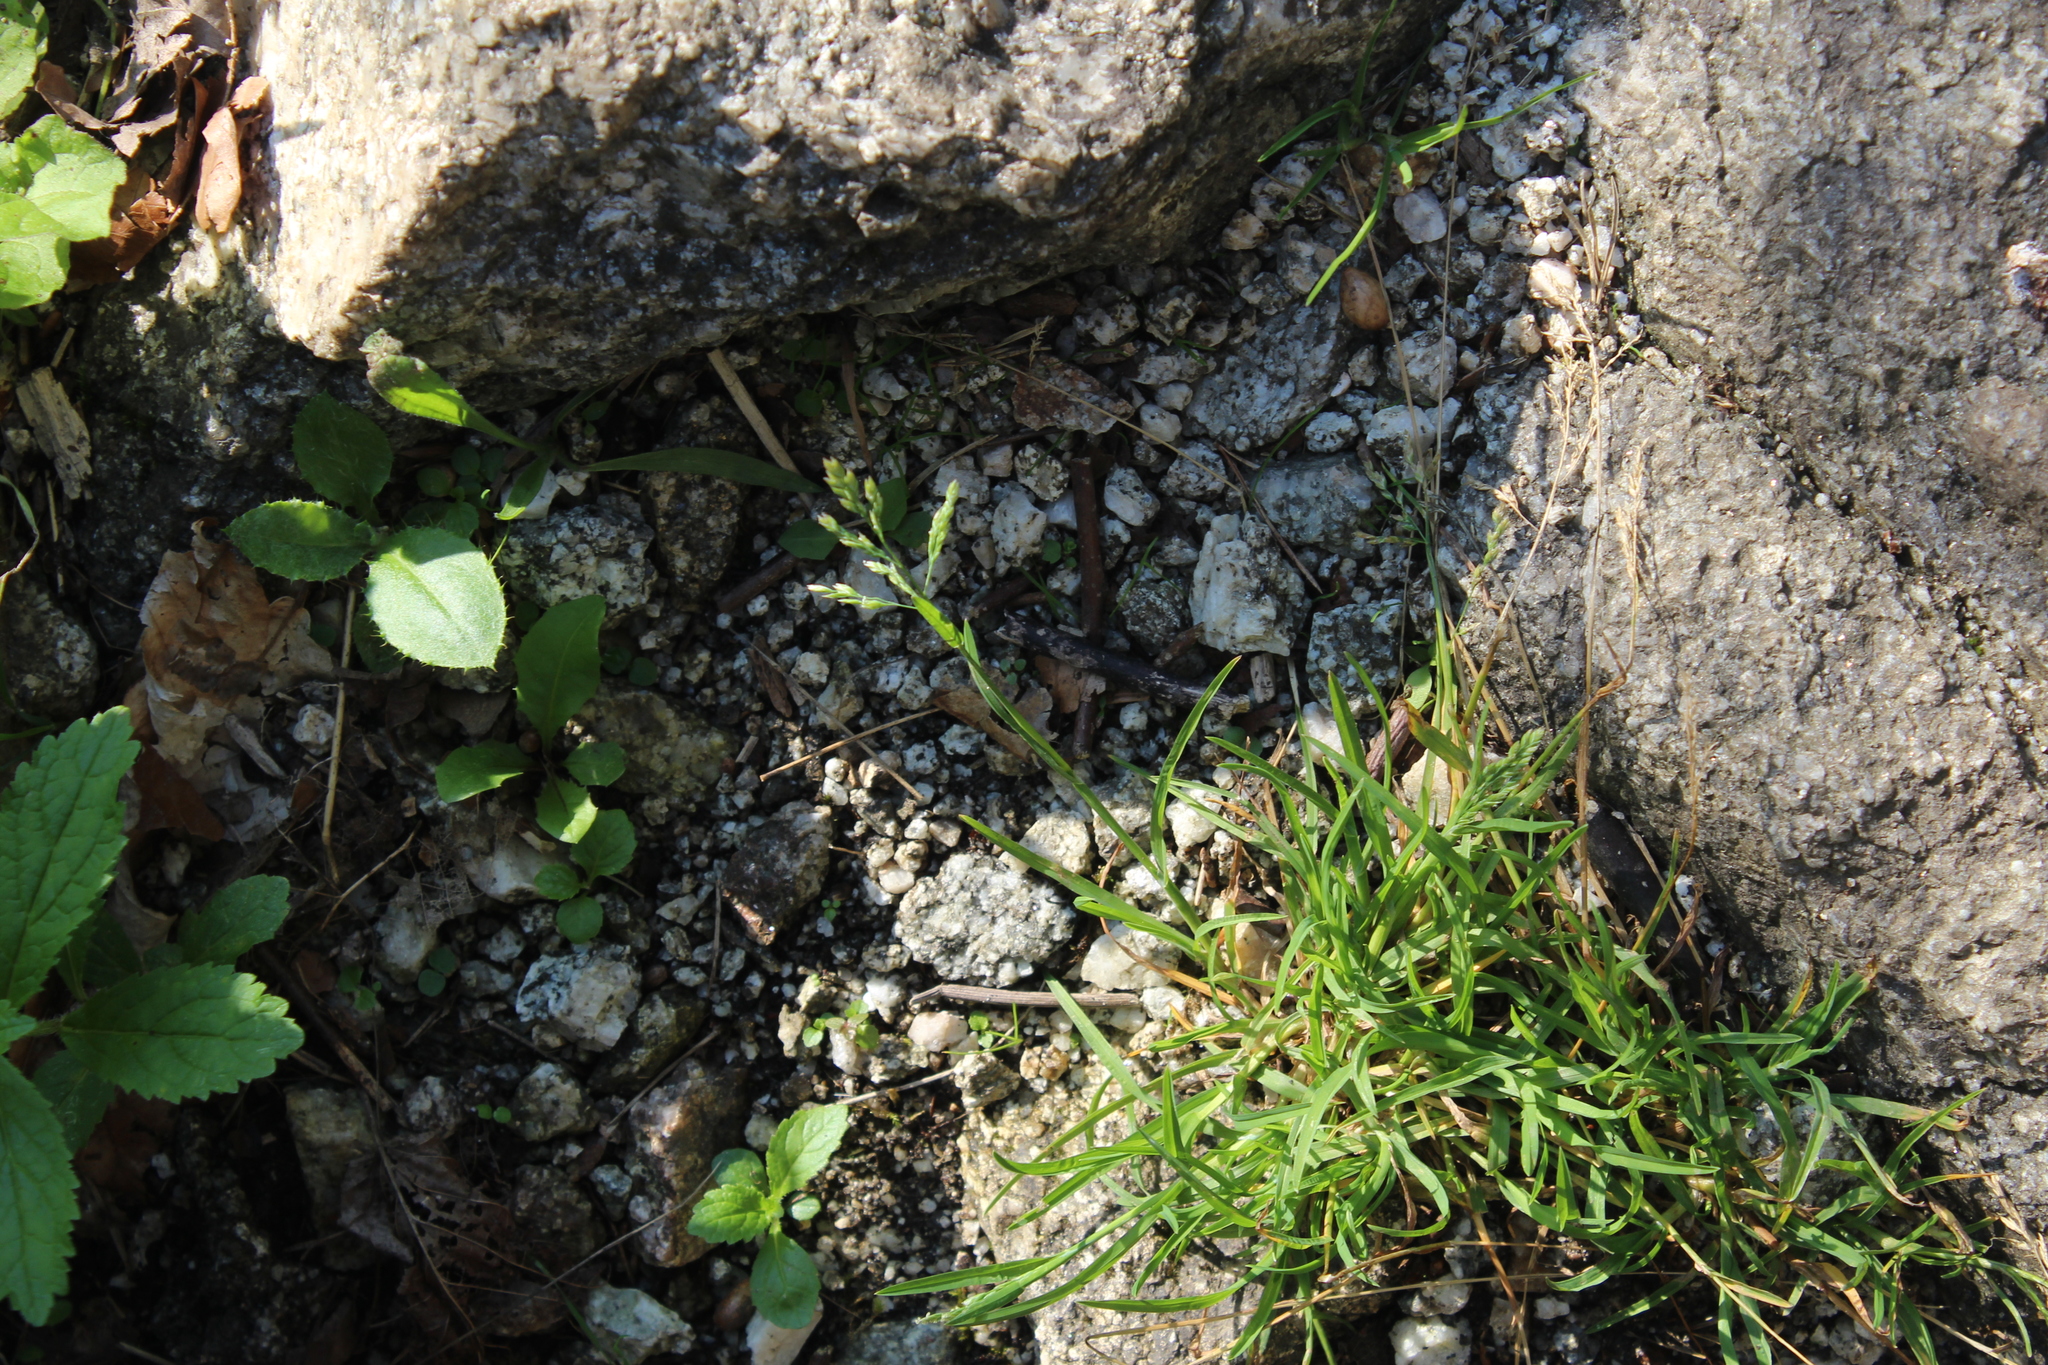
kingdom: Plantae
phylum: Tracheophyta
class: Liliopsida
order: Poales
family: Poaceae
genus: Poa
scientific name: Poa annua
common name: Annual bluegrass
